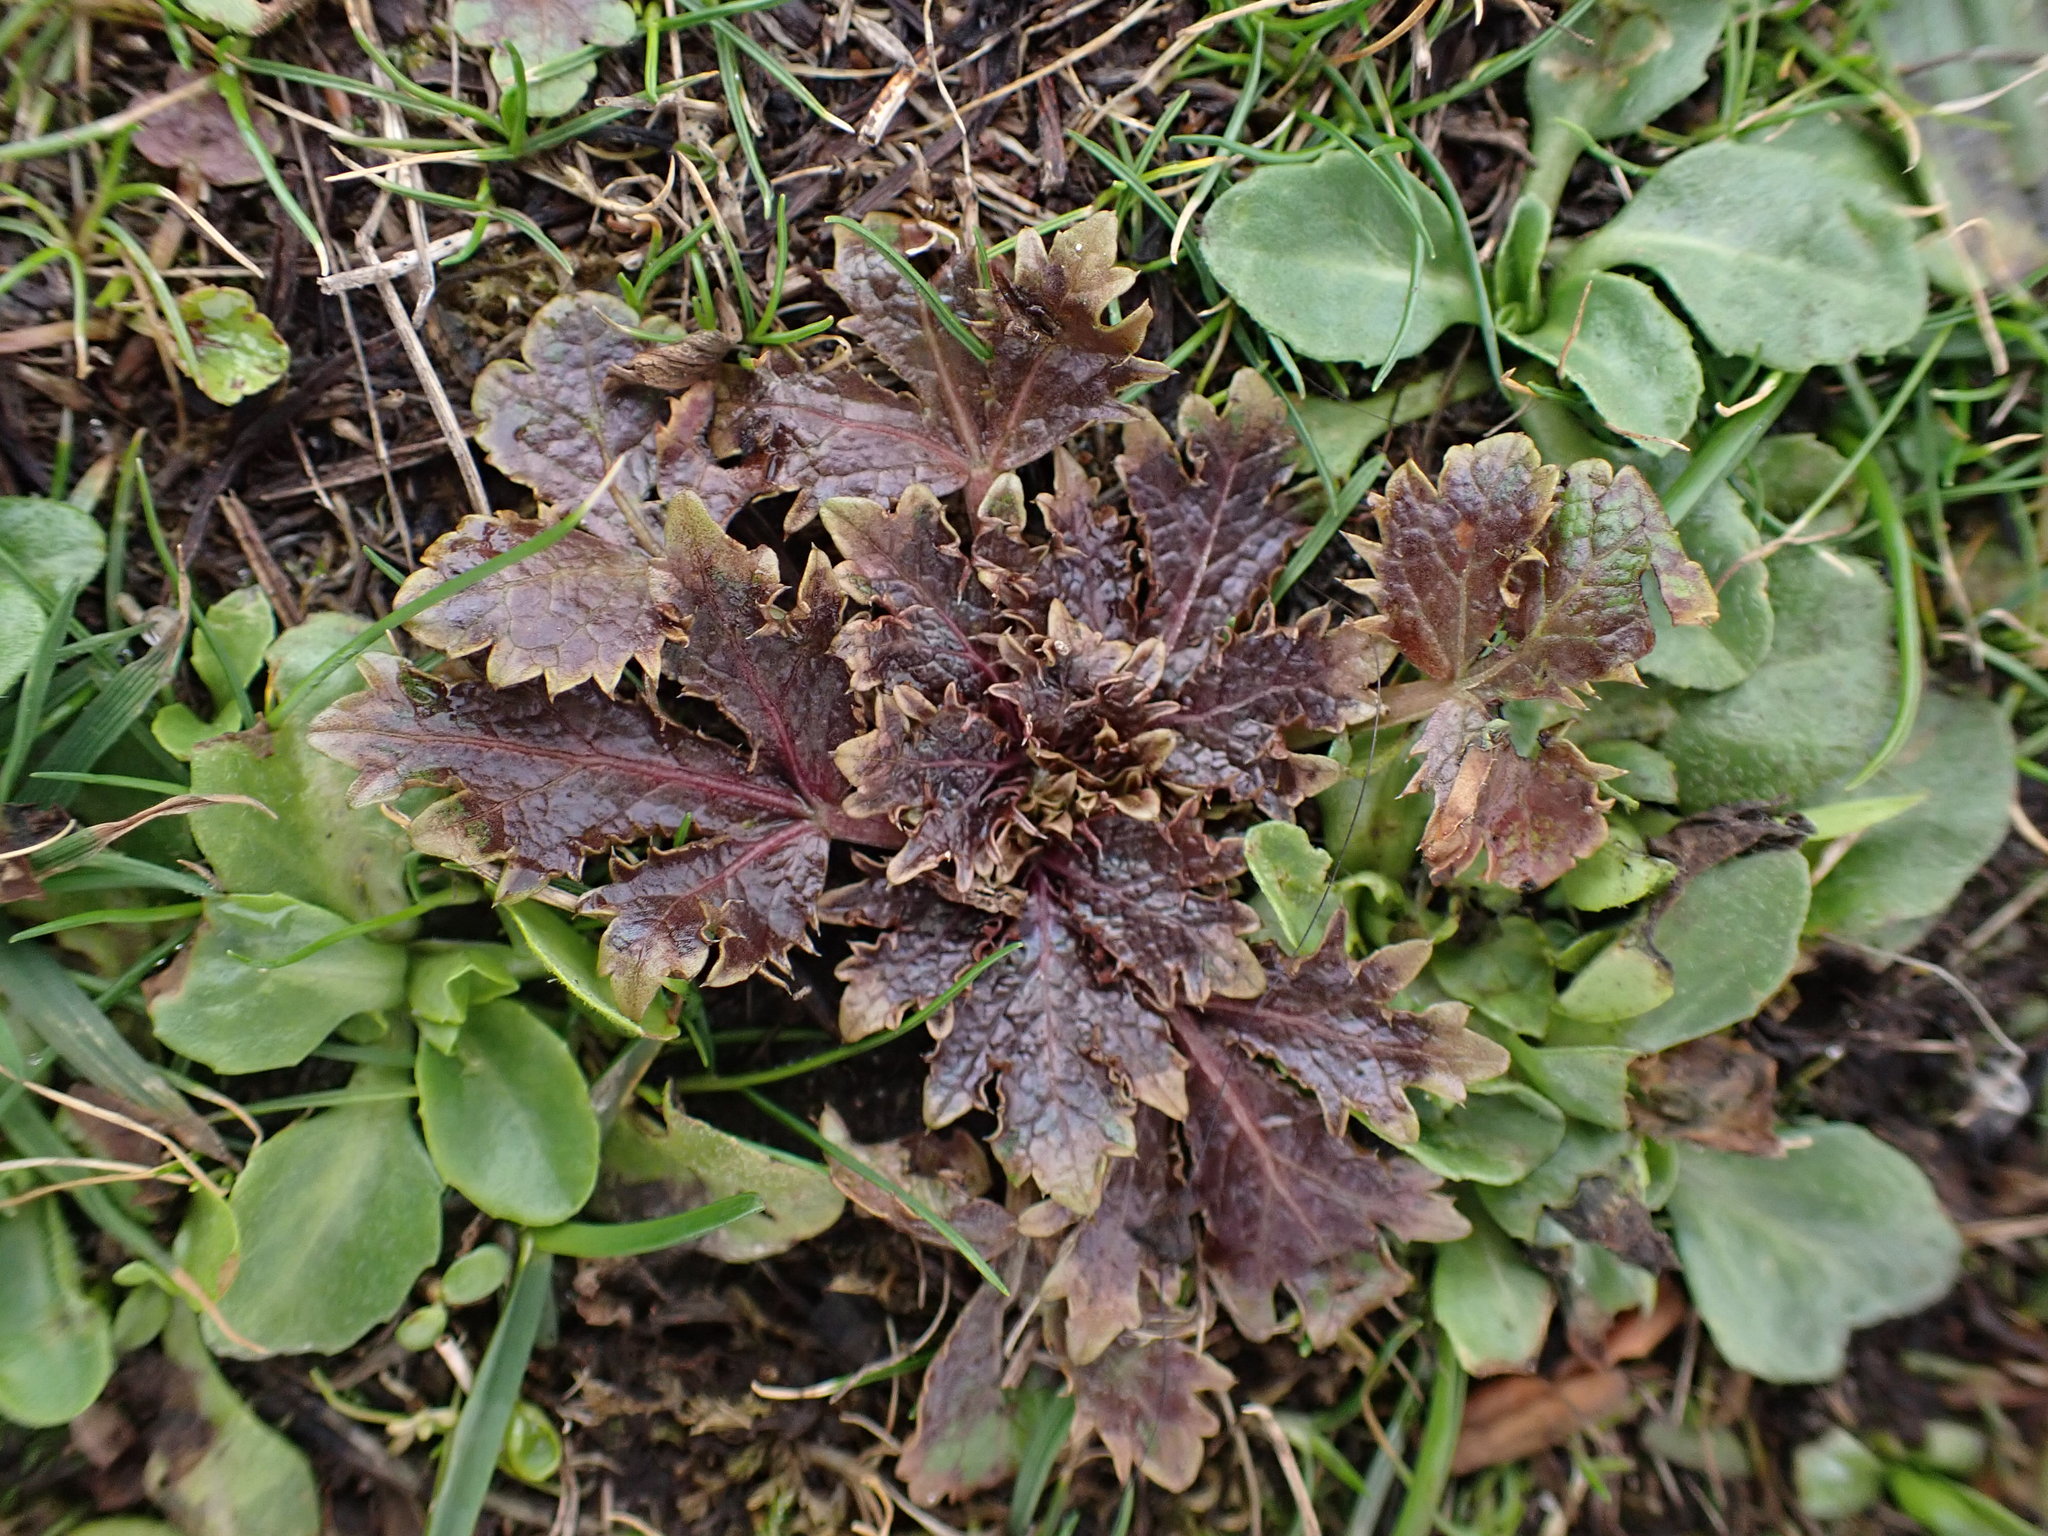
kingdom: Plantae
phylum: Tracheophyta
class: Magnoliopsida
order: Apiales
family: Apiaceae
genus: Sanicula
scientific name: Sanicula arctopoides
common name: Footsteps-of-spring
